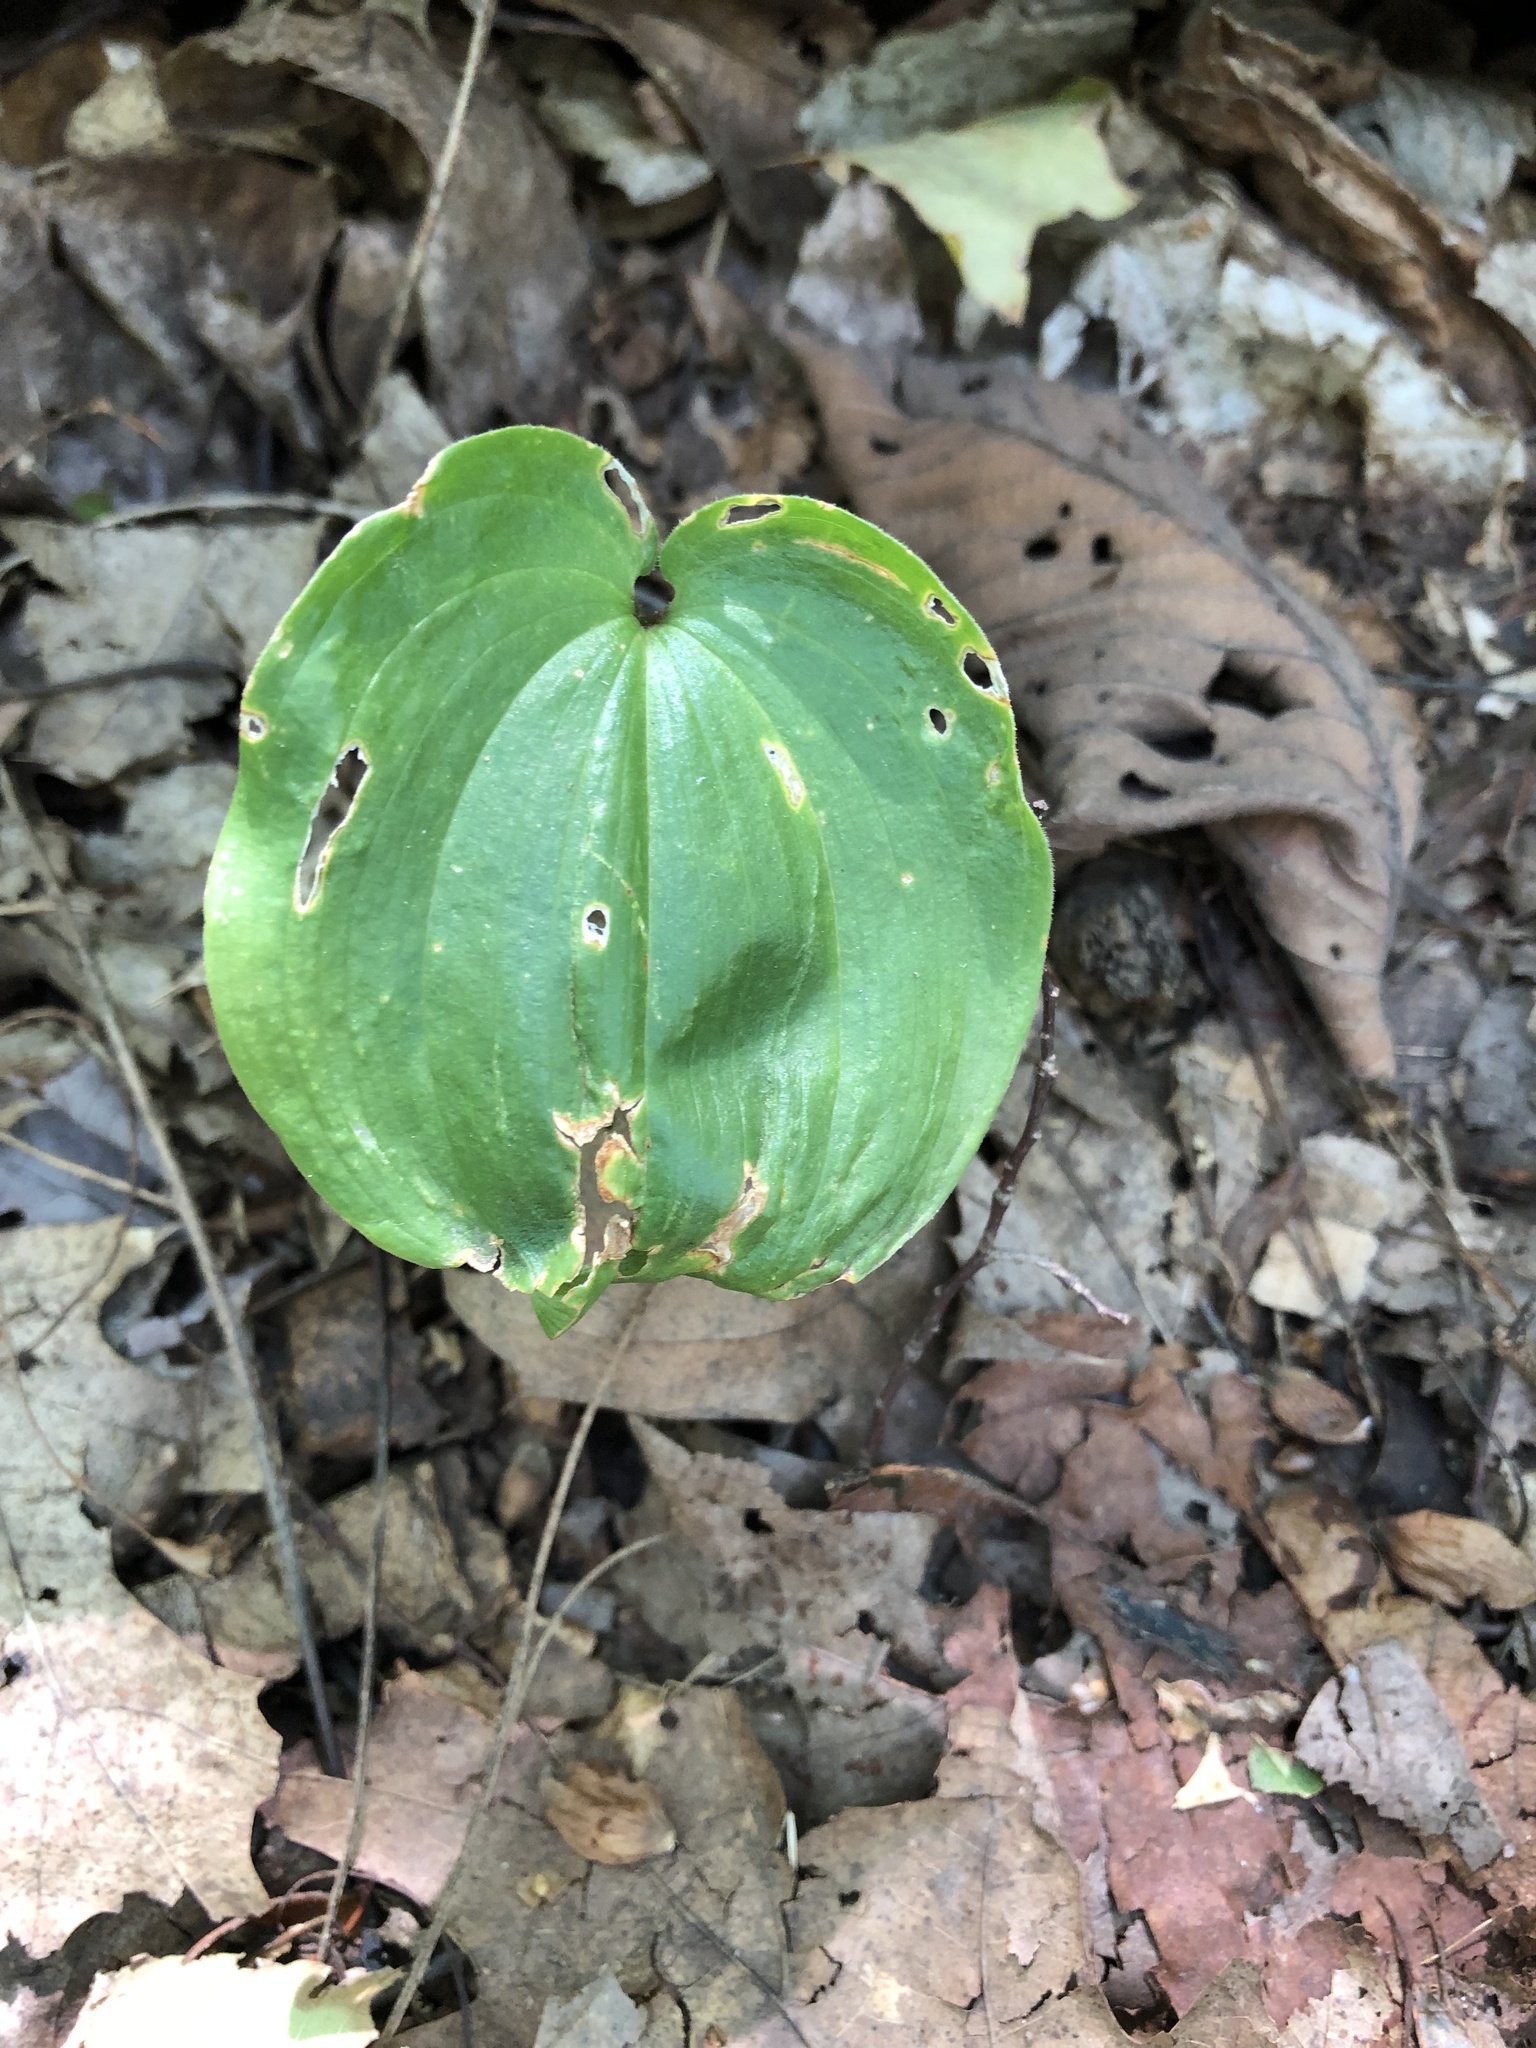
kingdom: Plantae
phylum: Tracheophyta
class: Liliopsida
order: Asparagales
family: Asparagaceae
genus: Maianthemum
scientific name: Maianthemum canadense
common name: False lily-of-the-valley
